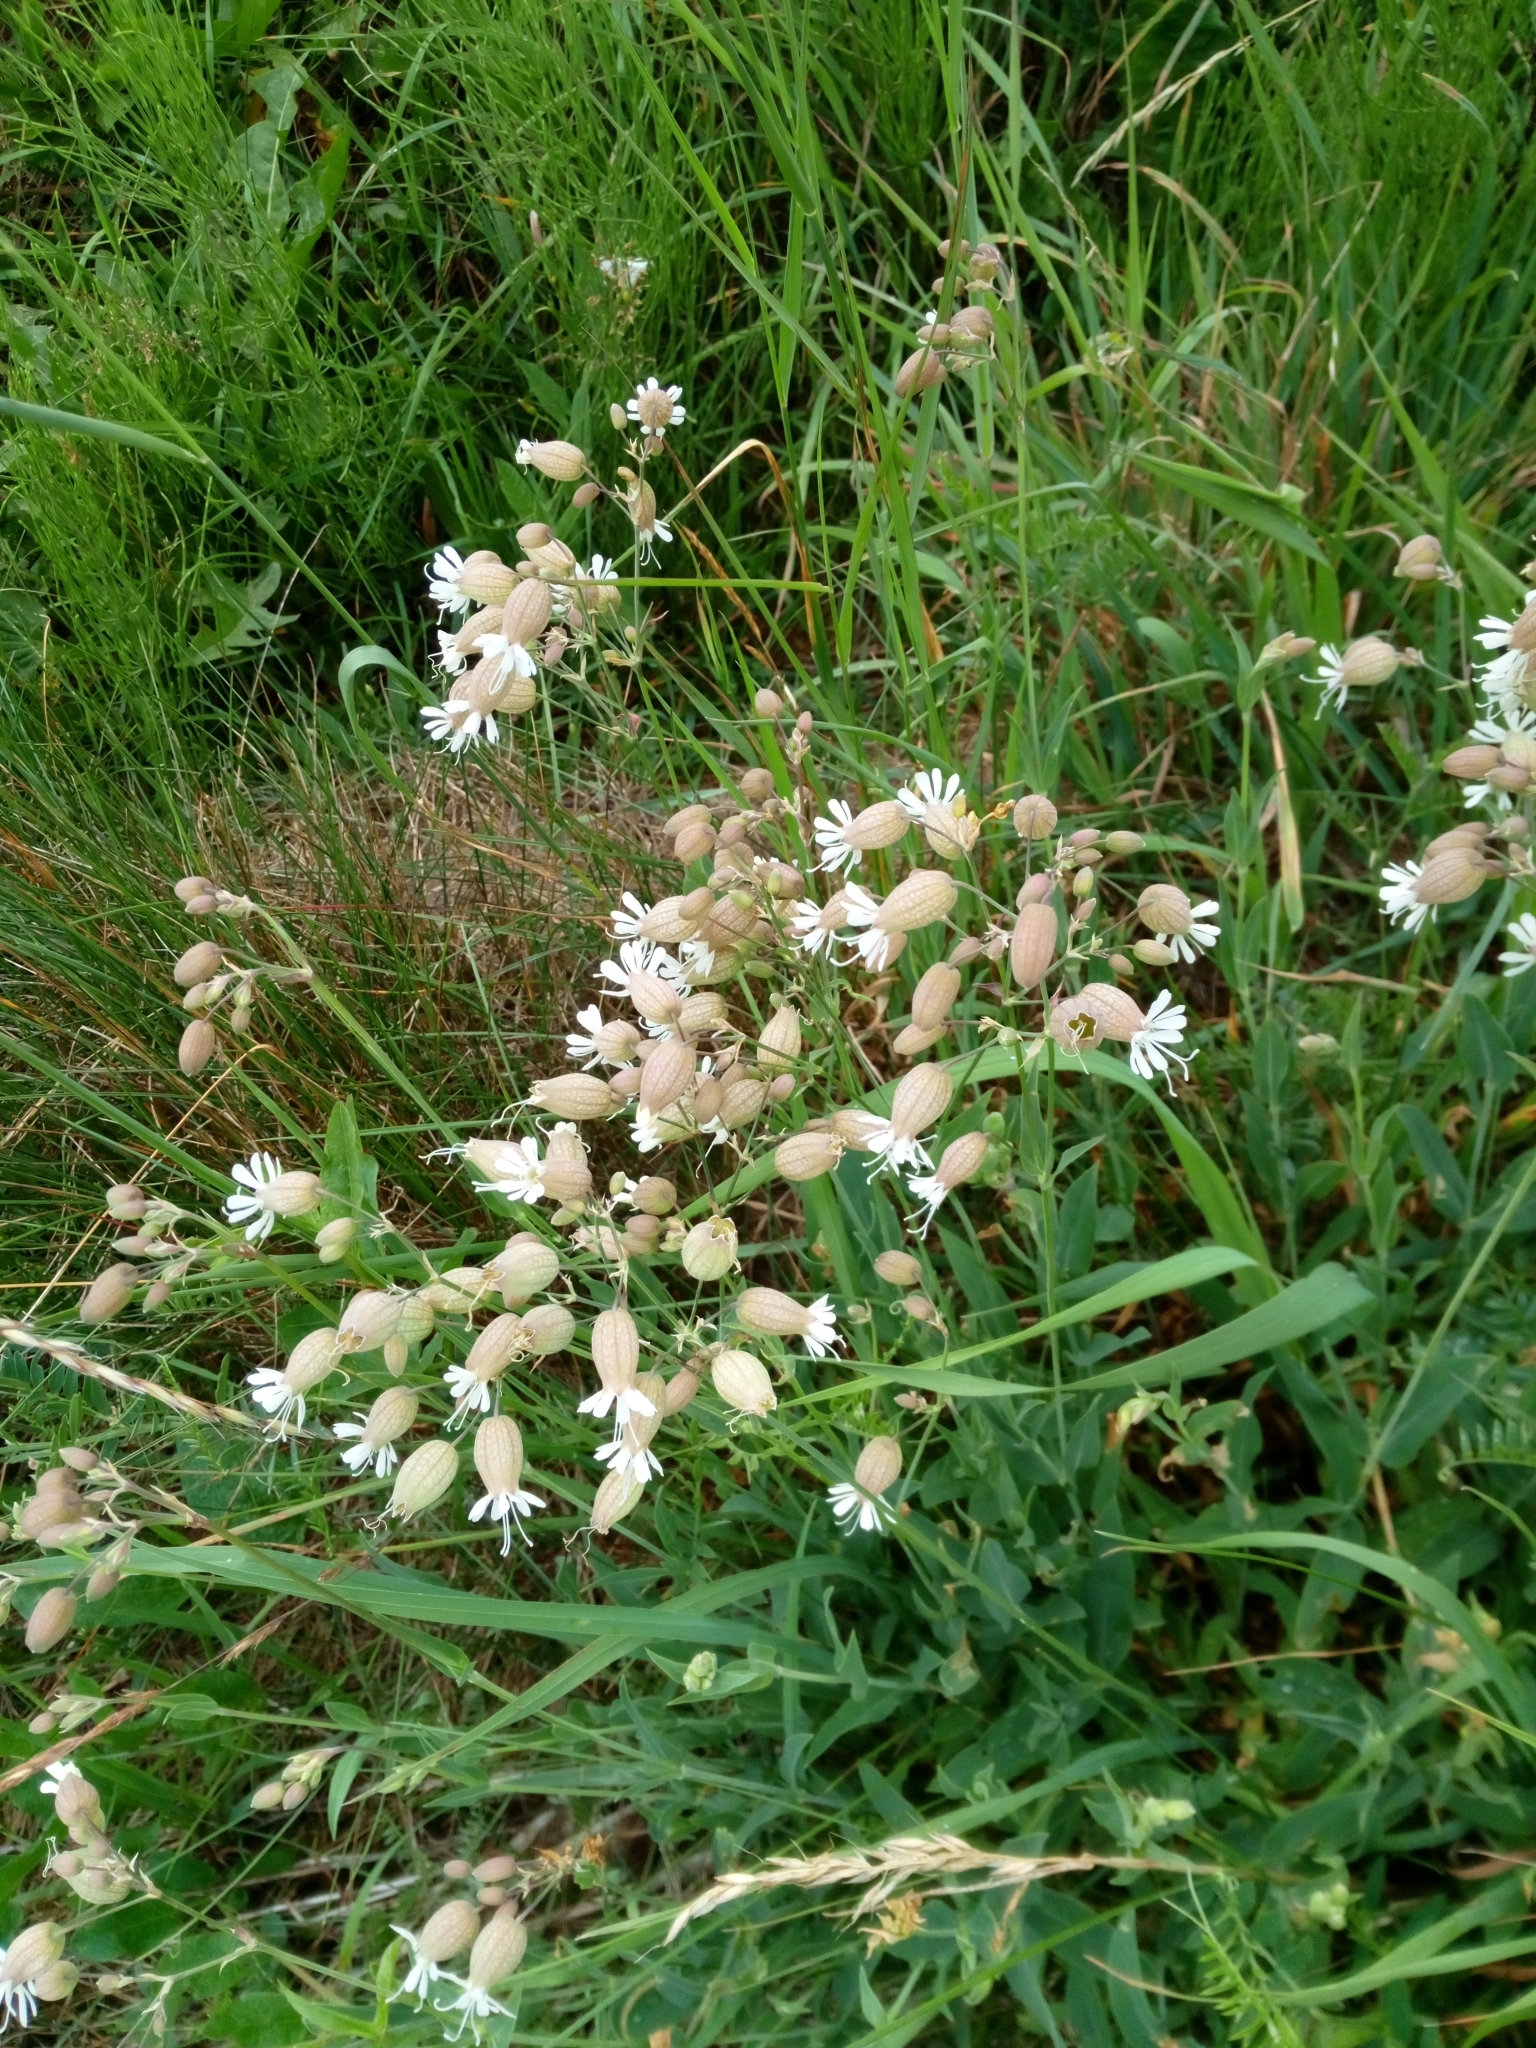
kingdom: Plantae
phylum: Tracheophyta
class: Magnoliopsida
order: Caryophyllales
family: Caryophyllaceae
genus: Silene
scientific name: Silene vulgaris
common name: Bladder campion
